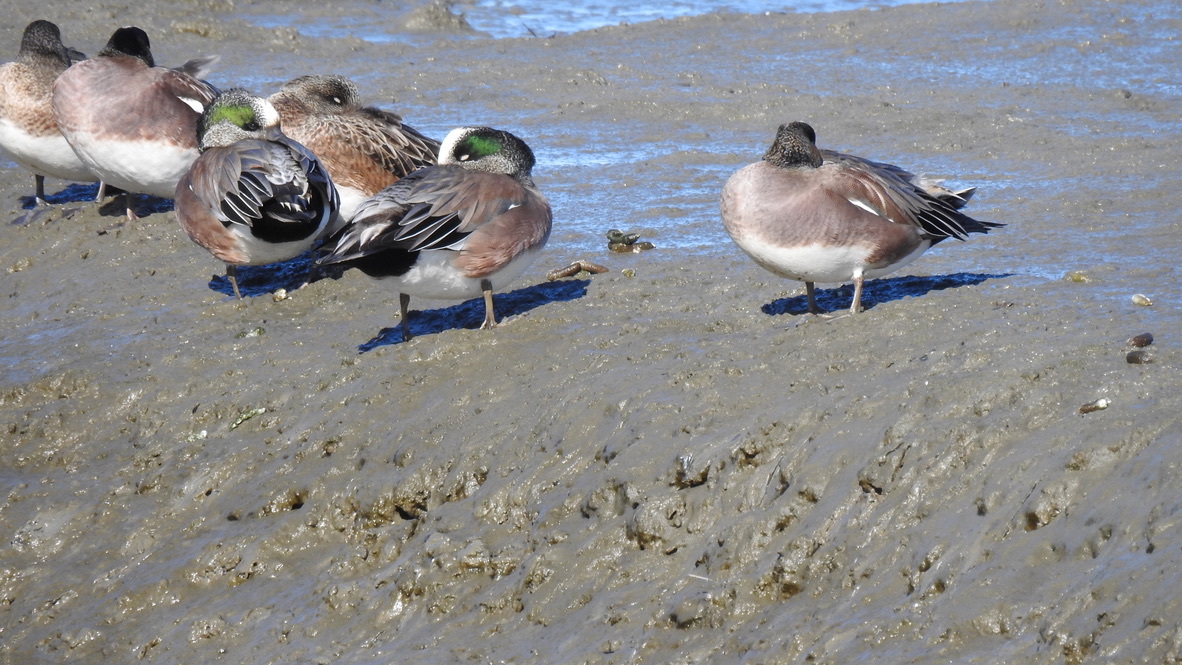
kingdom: Animalia
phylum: Chordata
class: Aves
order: Anseriformes
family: Anatidae
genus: Mareca
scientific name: Mareca americana
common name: American wigeon
